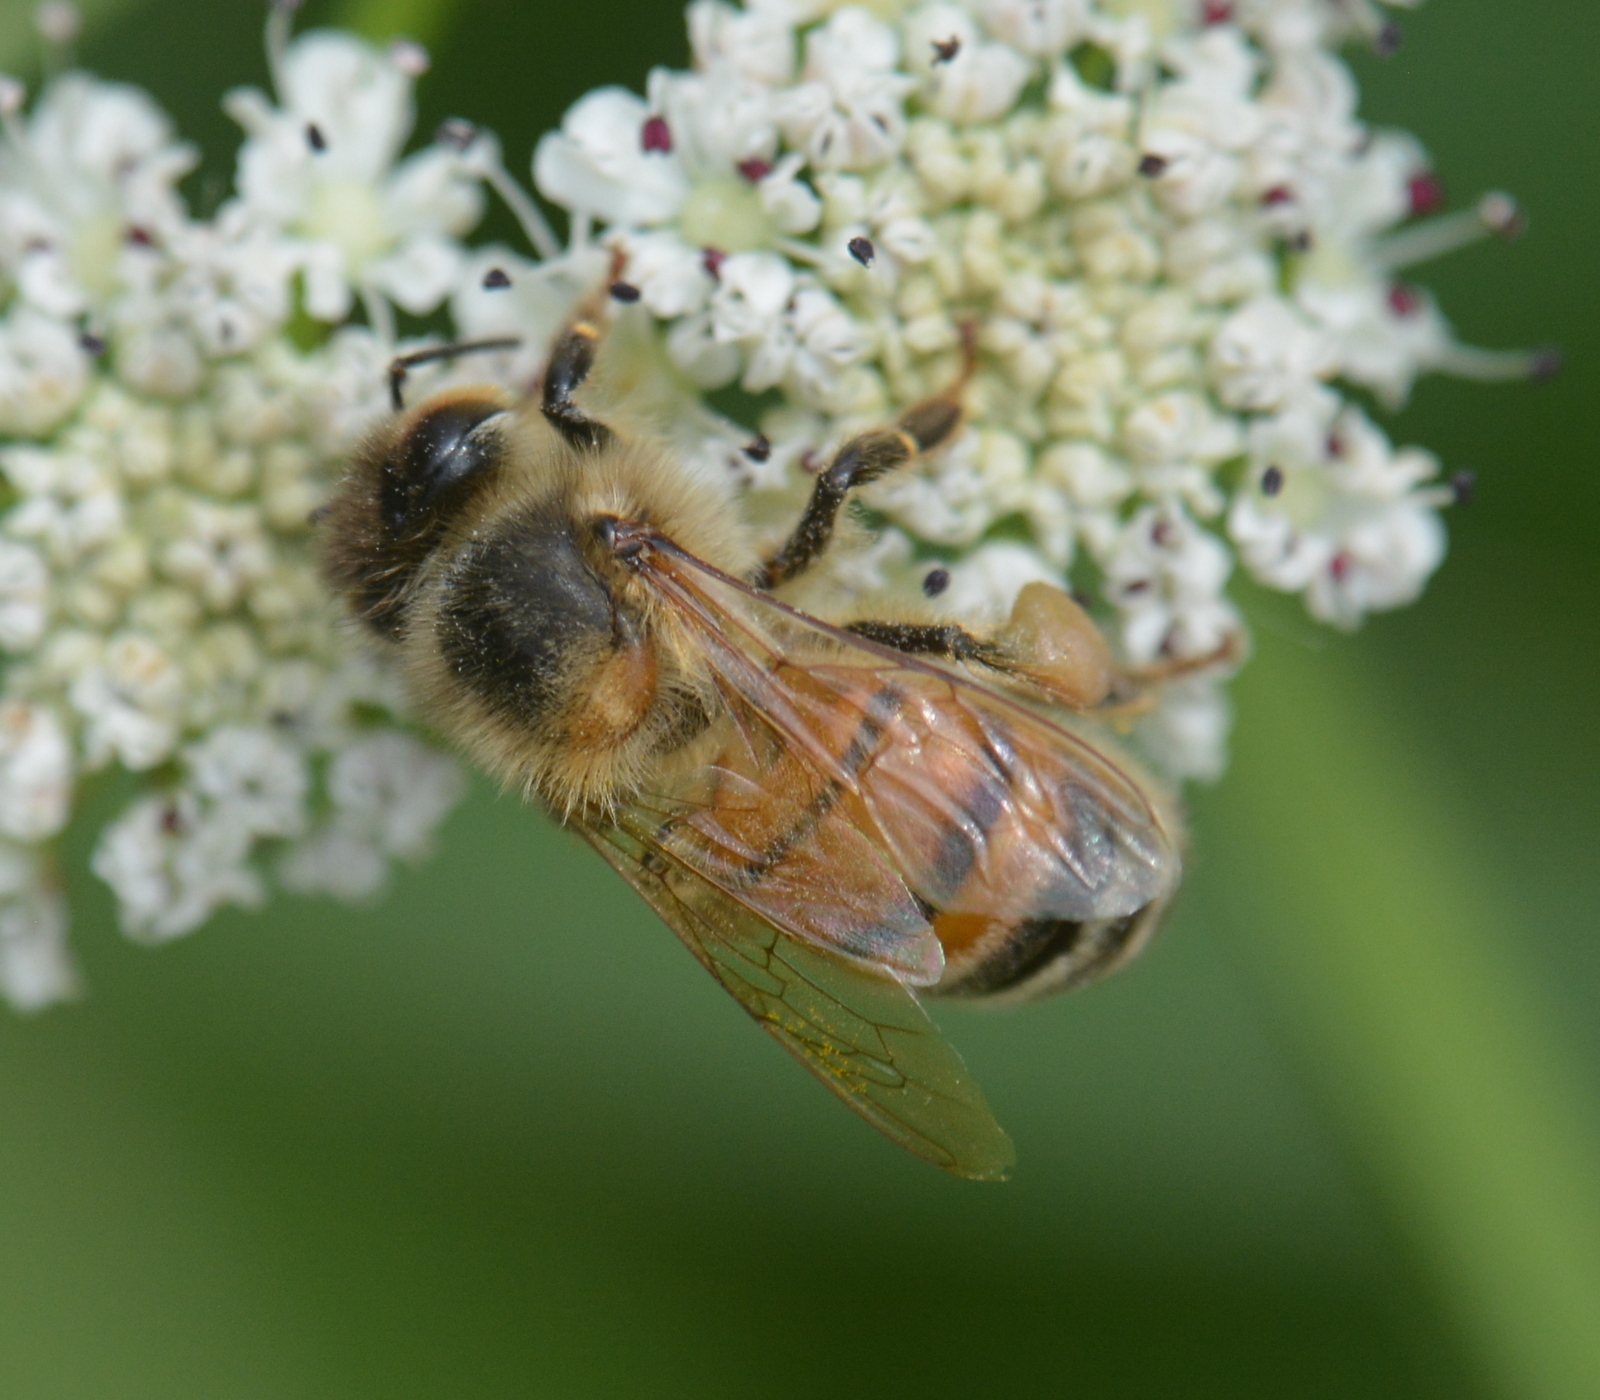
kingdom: Animalia
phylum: Arthropoda
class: Insecta
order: Hymenoptera
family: Apidae
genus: Apis
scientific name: Apis mellifera
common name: Honey bee
